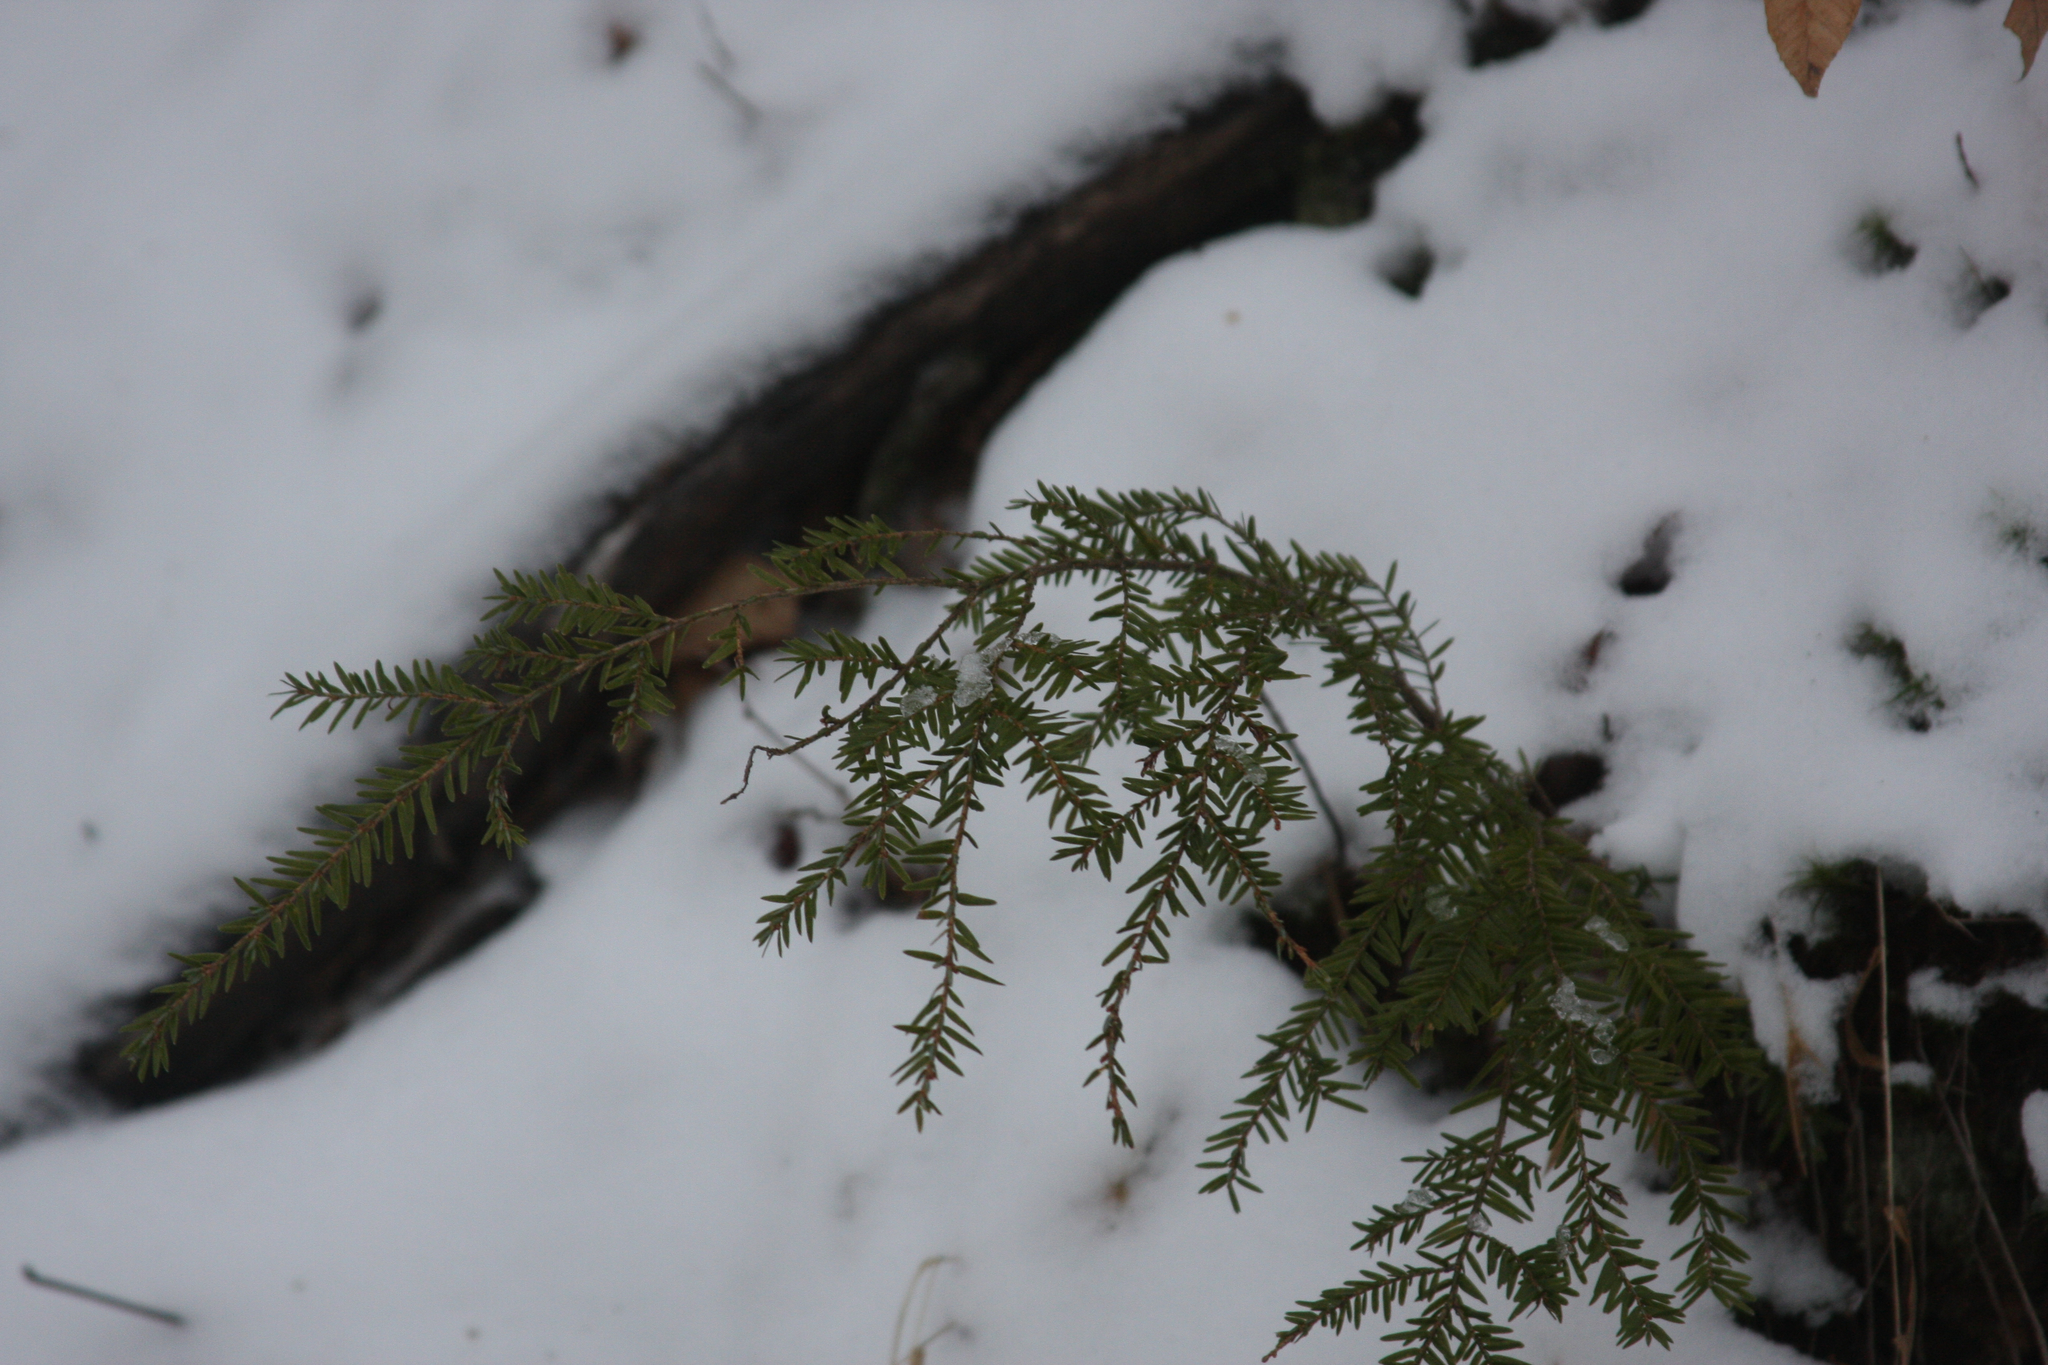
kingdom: Plantae
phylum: Tracheophyta
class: Pinopsida
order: Pinales
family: Pinaceae
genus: Tsuga
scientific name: Tsuga canadensis
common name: Eastern hemlock
